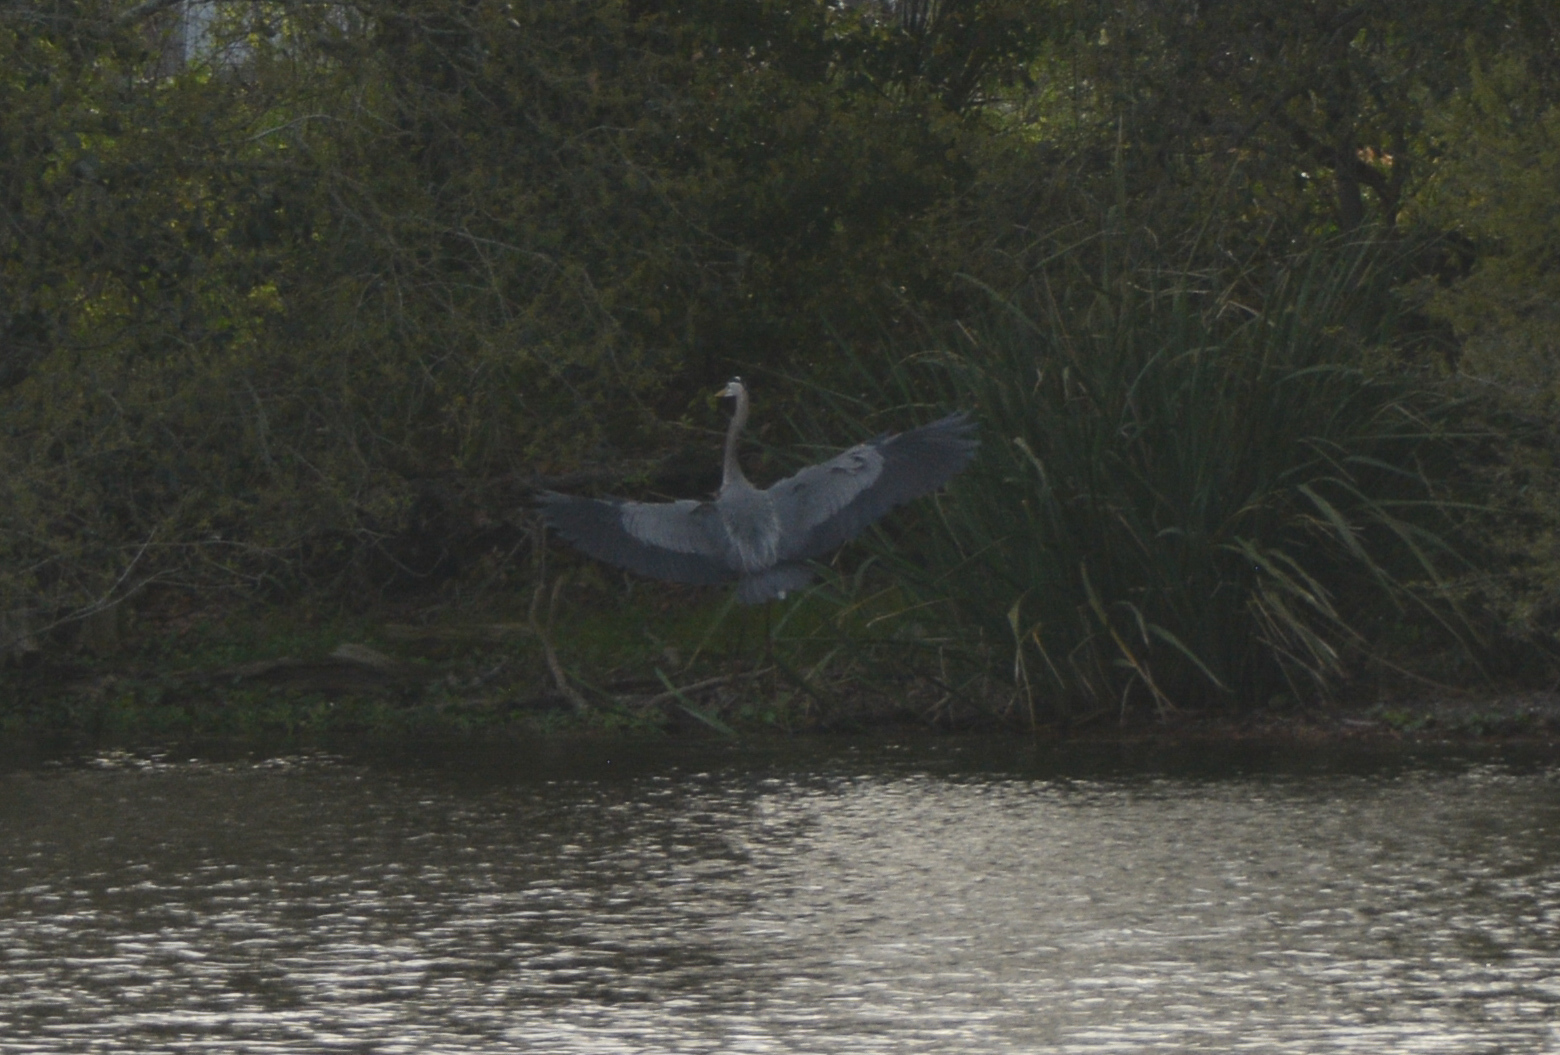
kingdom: Animalia
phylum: Chordata
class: Aves
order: Pelecaniformes
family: Ardeidae
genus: Ardea
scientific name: Ardea herodias
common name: Great blue heron
